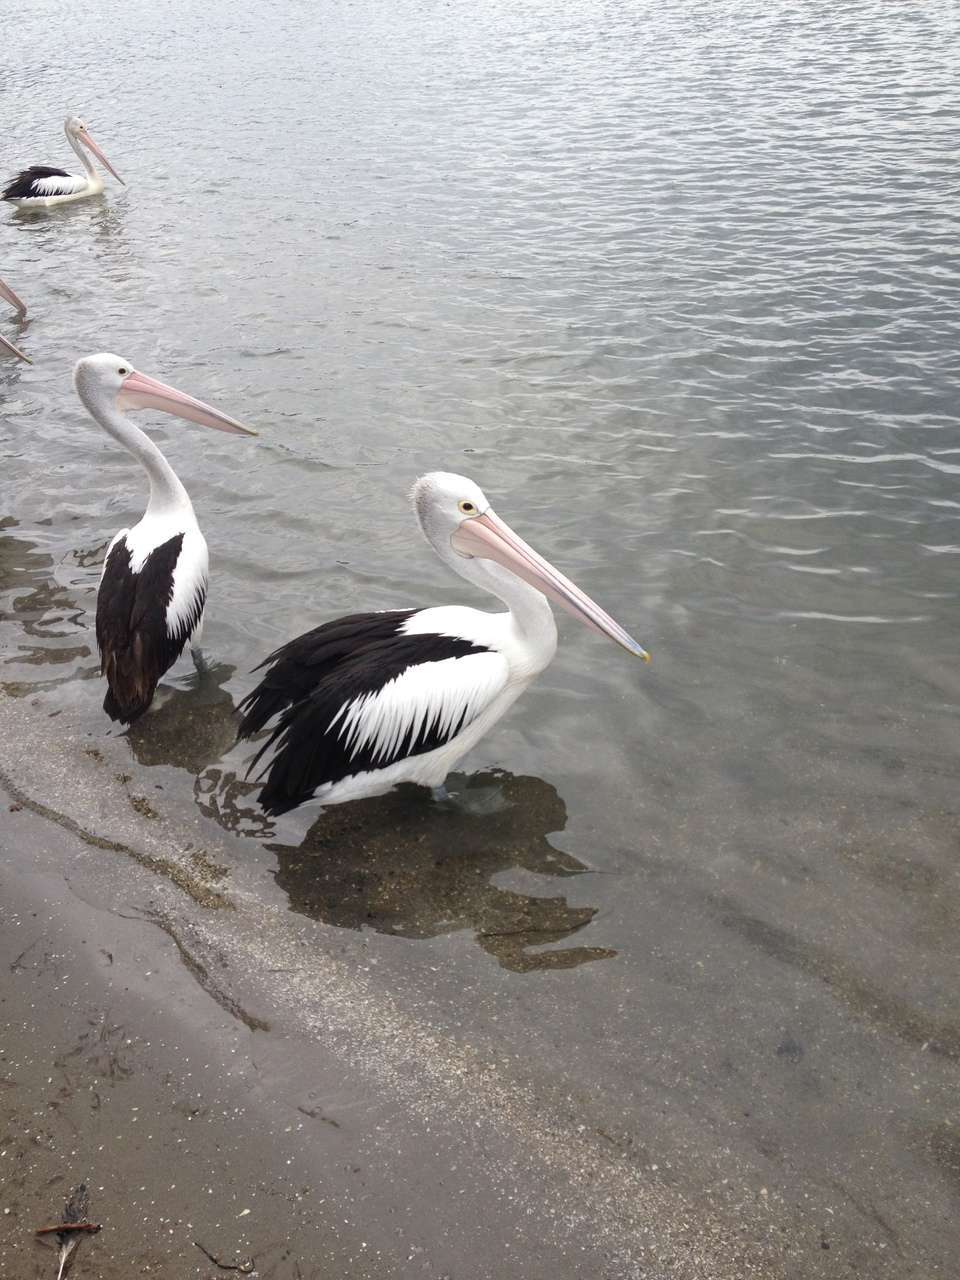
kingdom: Animalia
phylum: Chordata
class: Aves
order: Pelecaniformes
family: Pelecanidae
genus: Pelecanus
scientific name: Pelecanus conspicillatus
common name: Australian pelican
